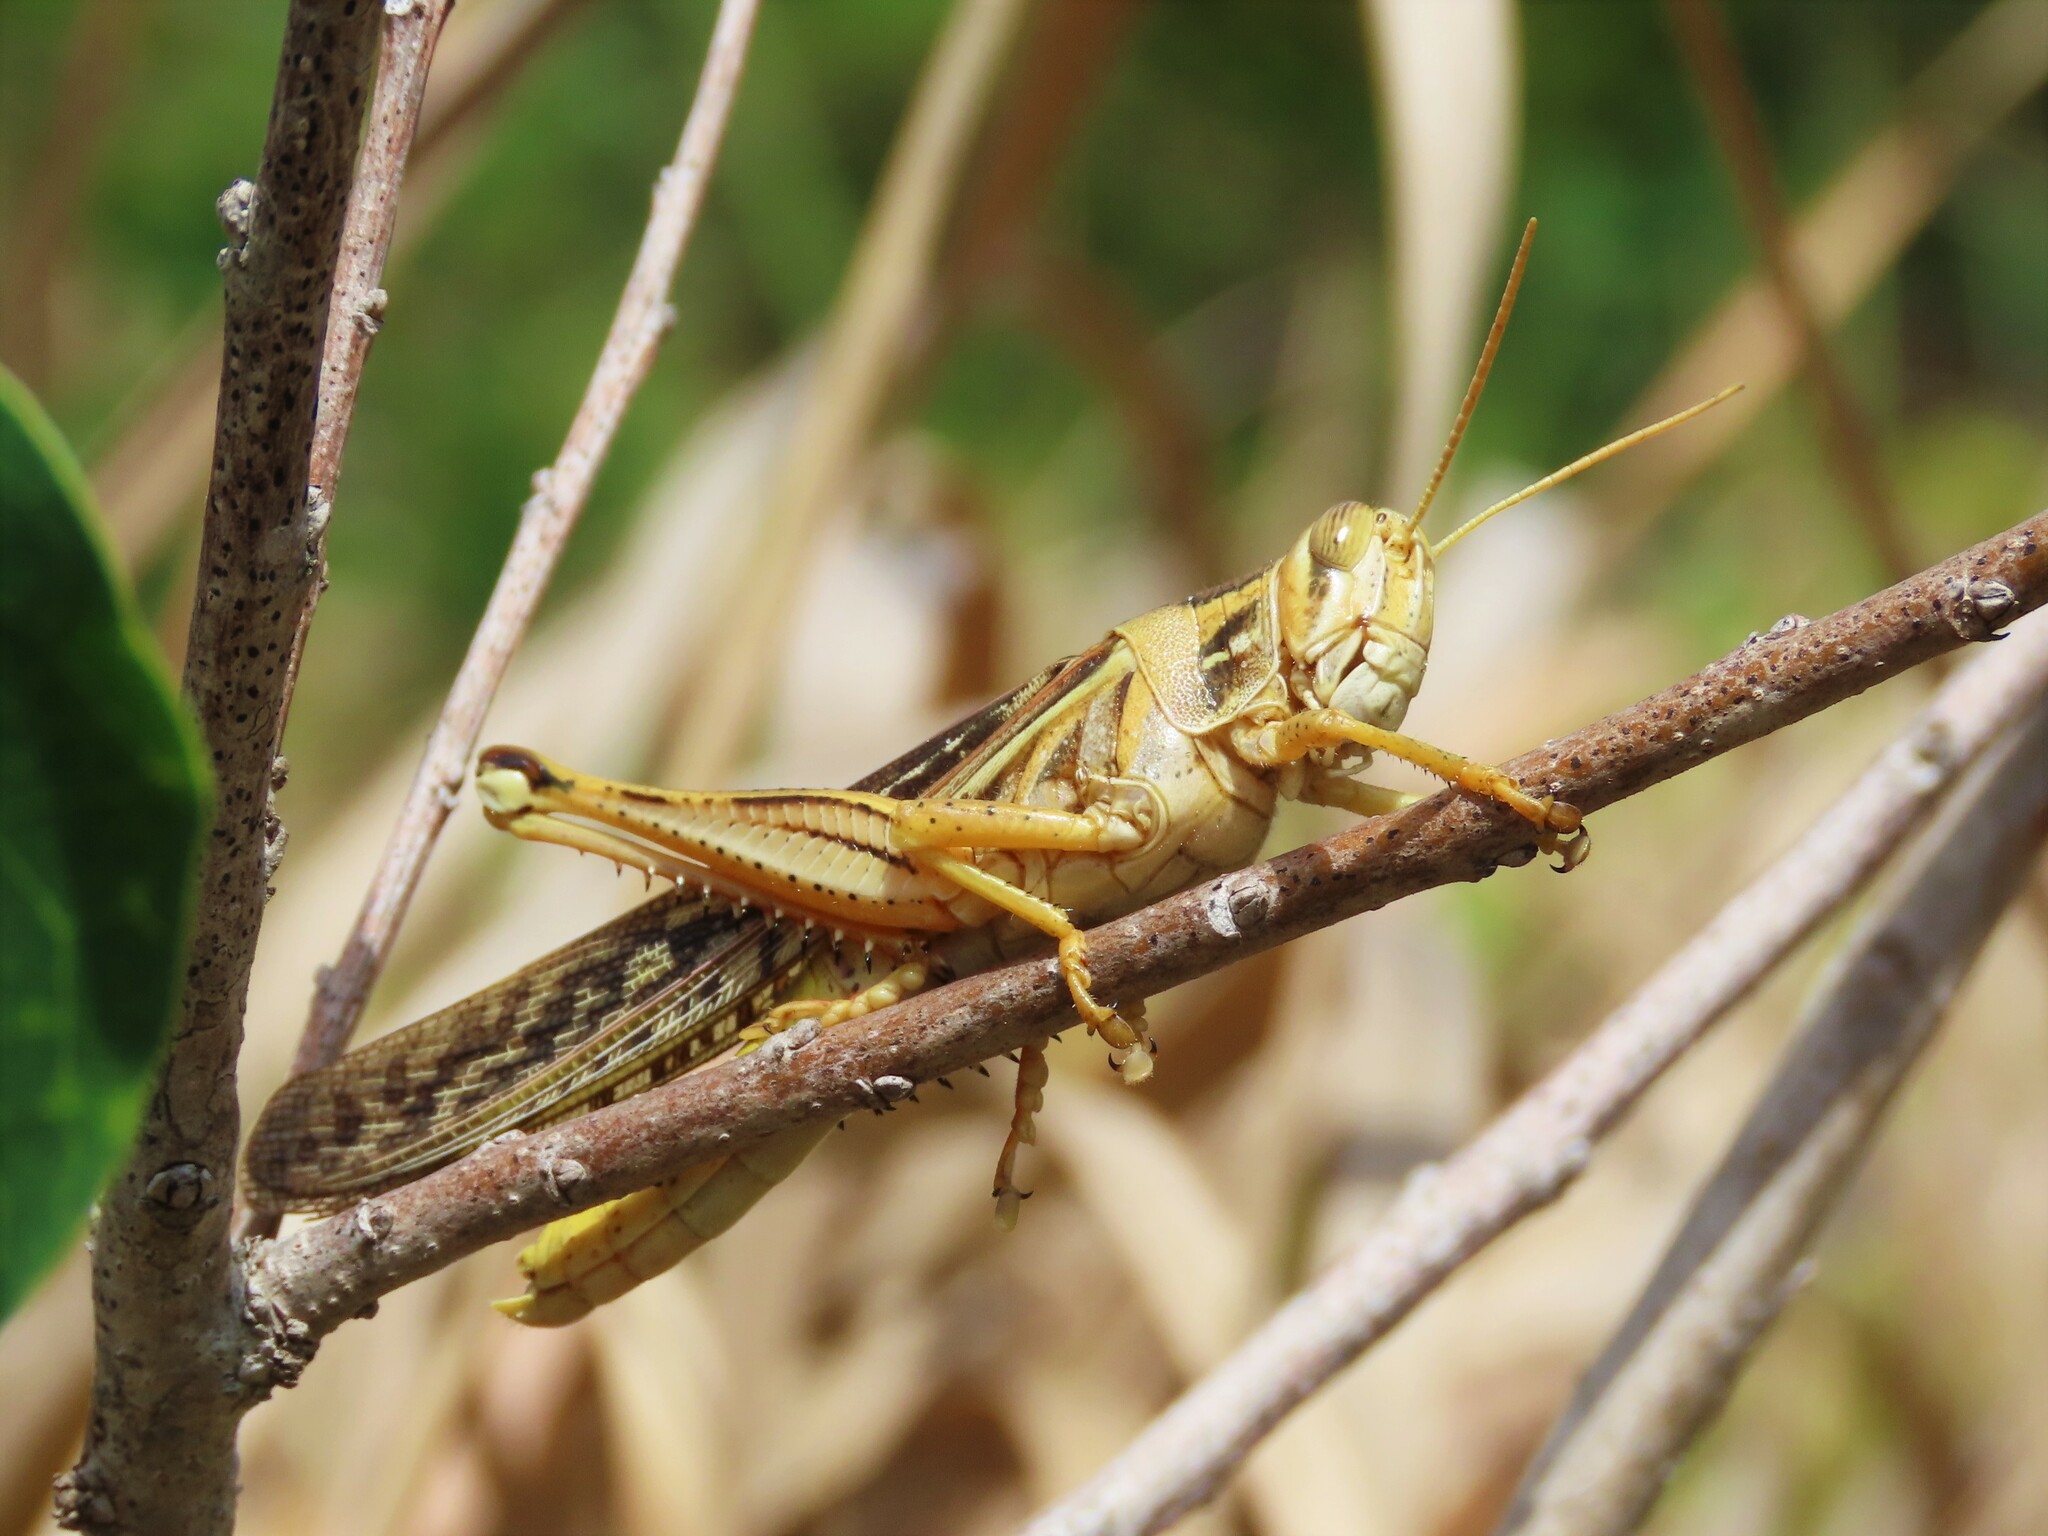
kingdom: Animalia
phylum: Arthropoda
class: Insecta
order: Orthoptera
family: Acrididae
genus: Schistocerca
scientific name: Schistocerca americana
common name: American bird locust
